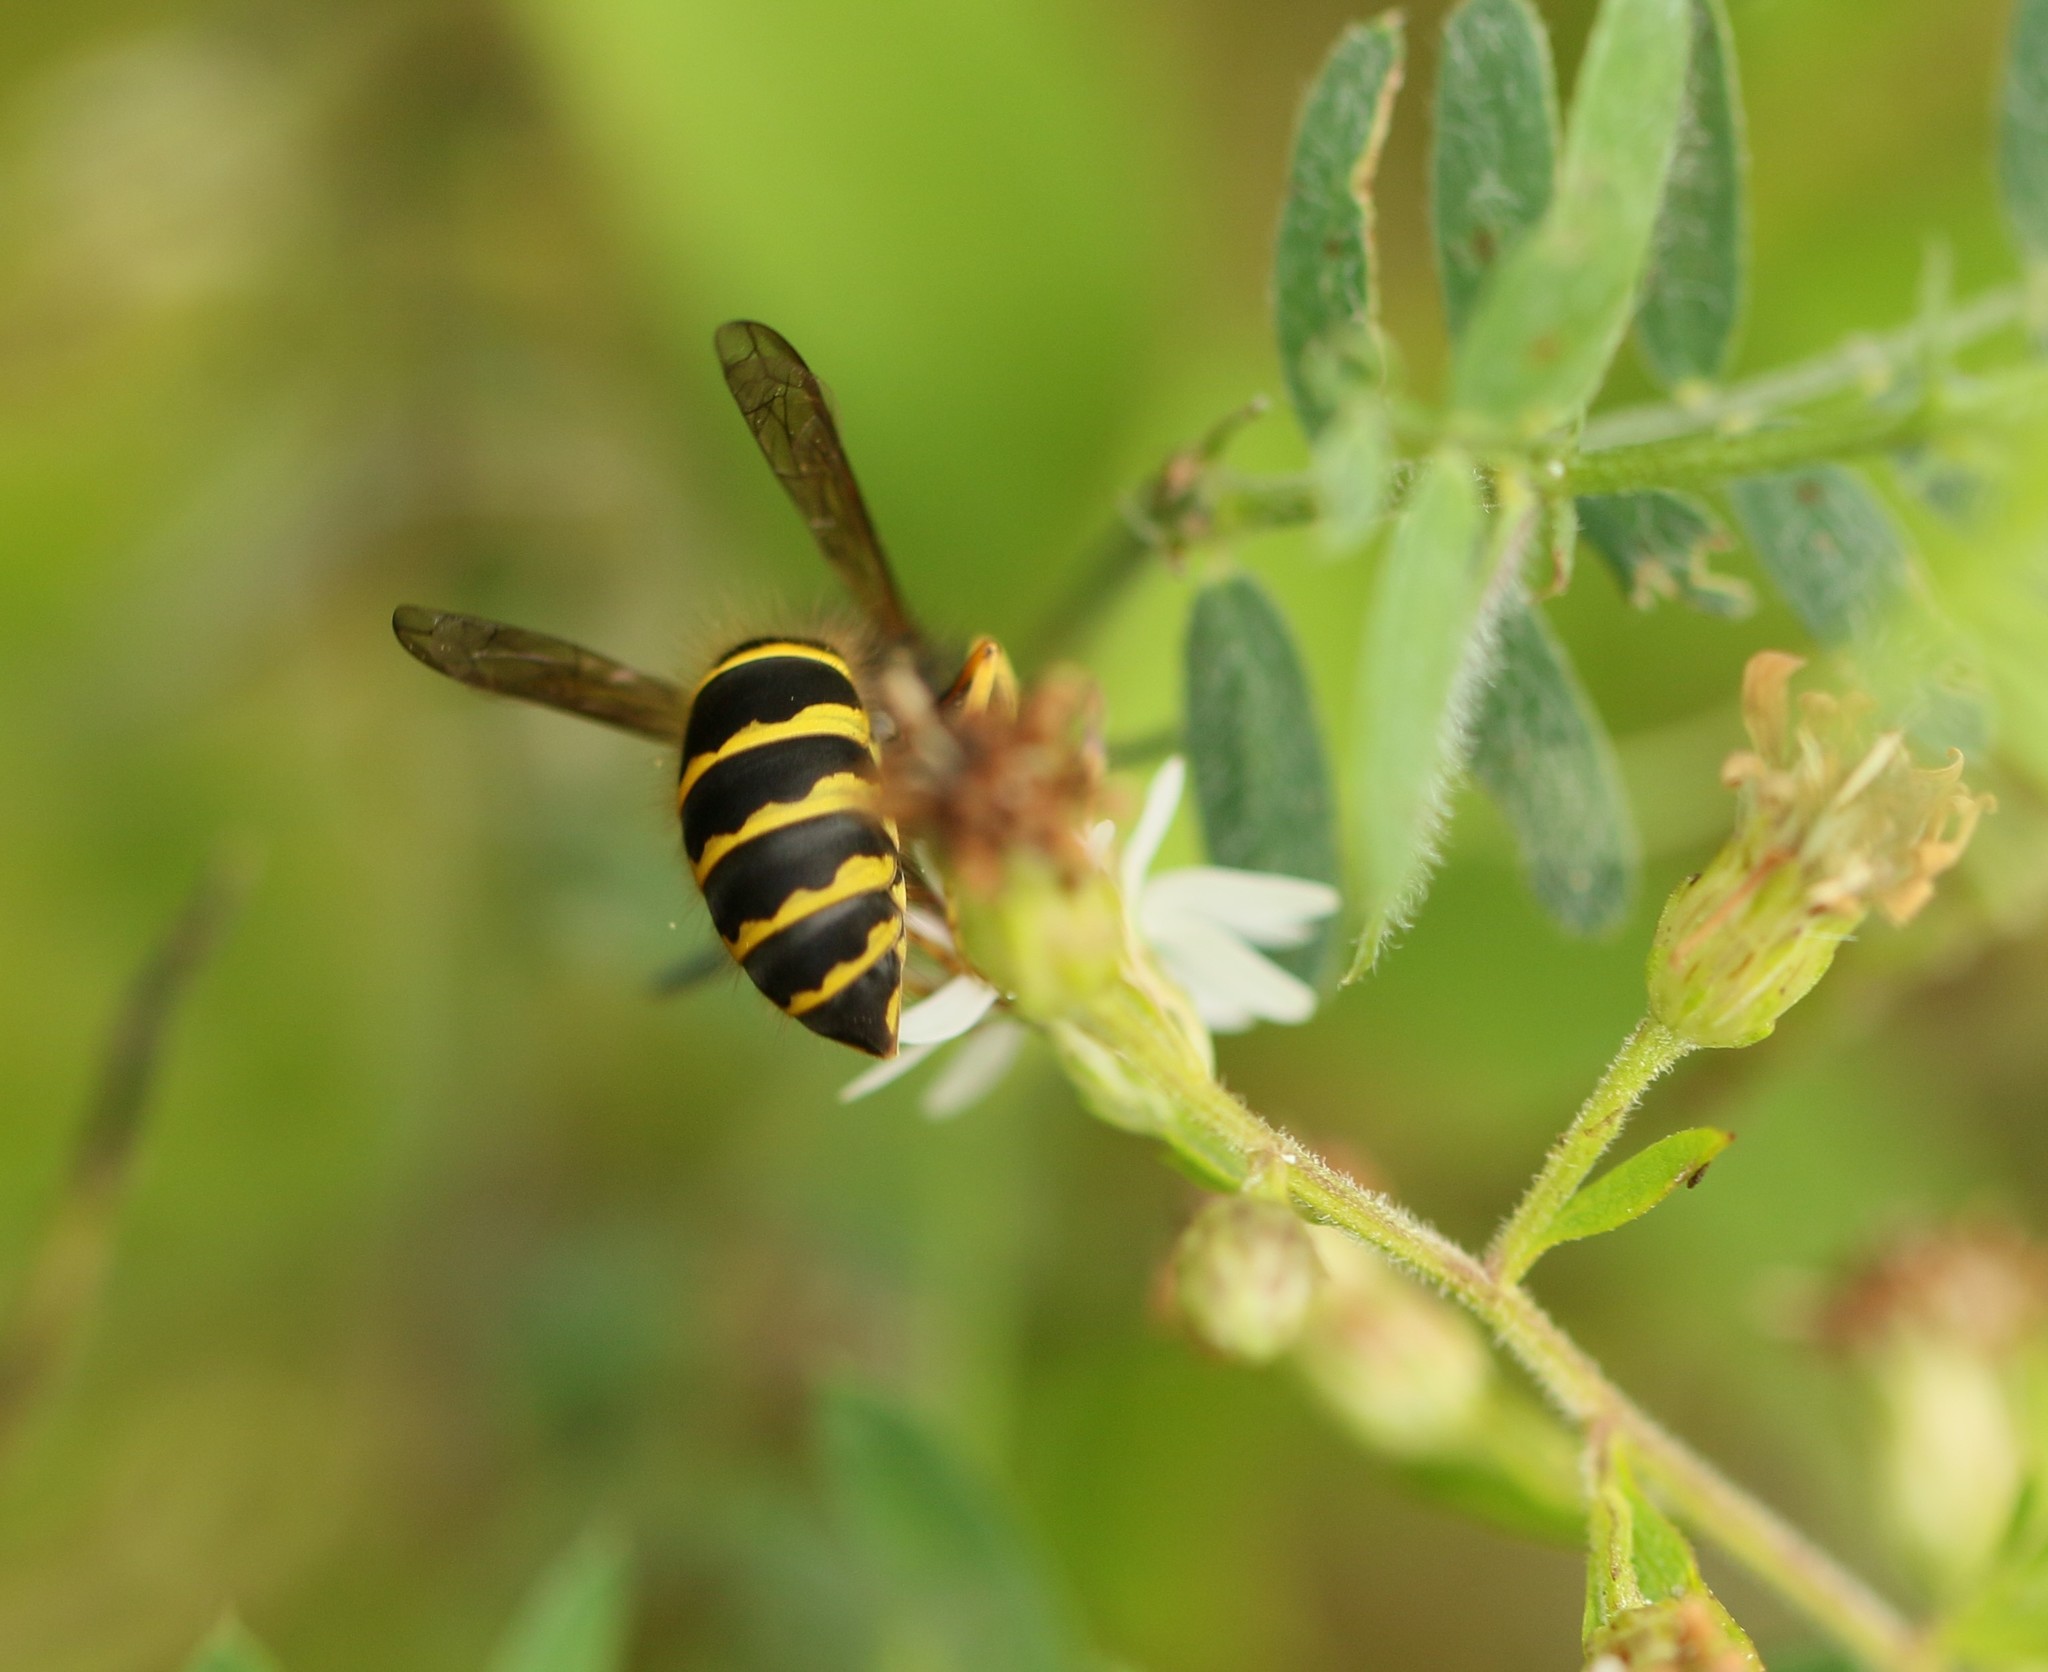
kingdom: Animalia
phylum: Arthropoda
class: Insecta
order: Hymenoptera
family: Vespidae
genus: Vespula
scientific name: Vespula alascensis
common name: Alaska yellowjacket
